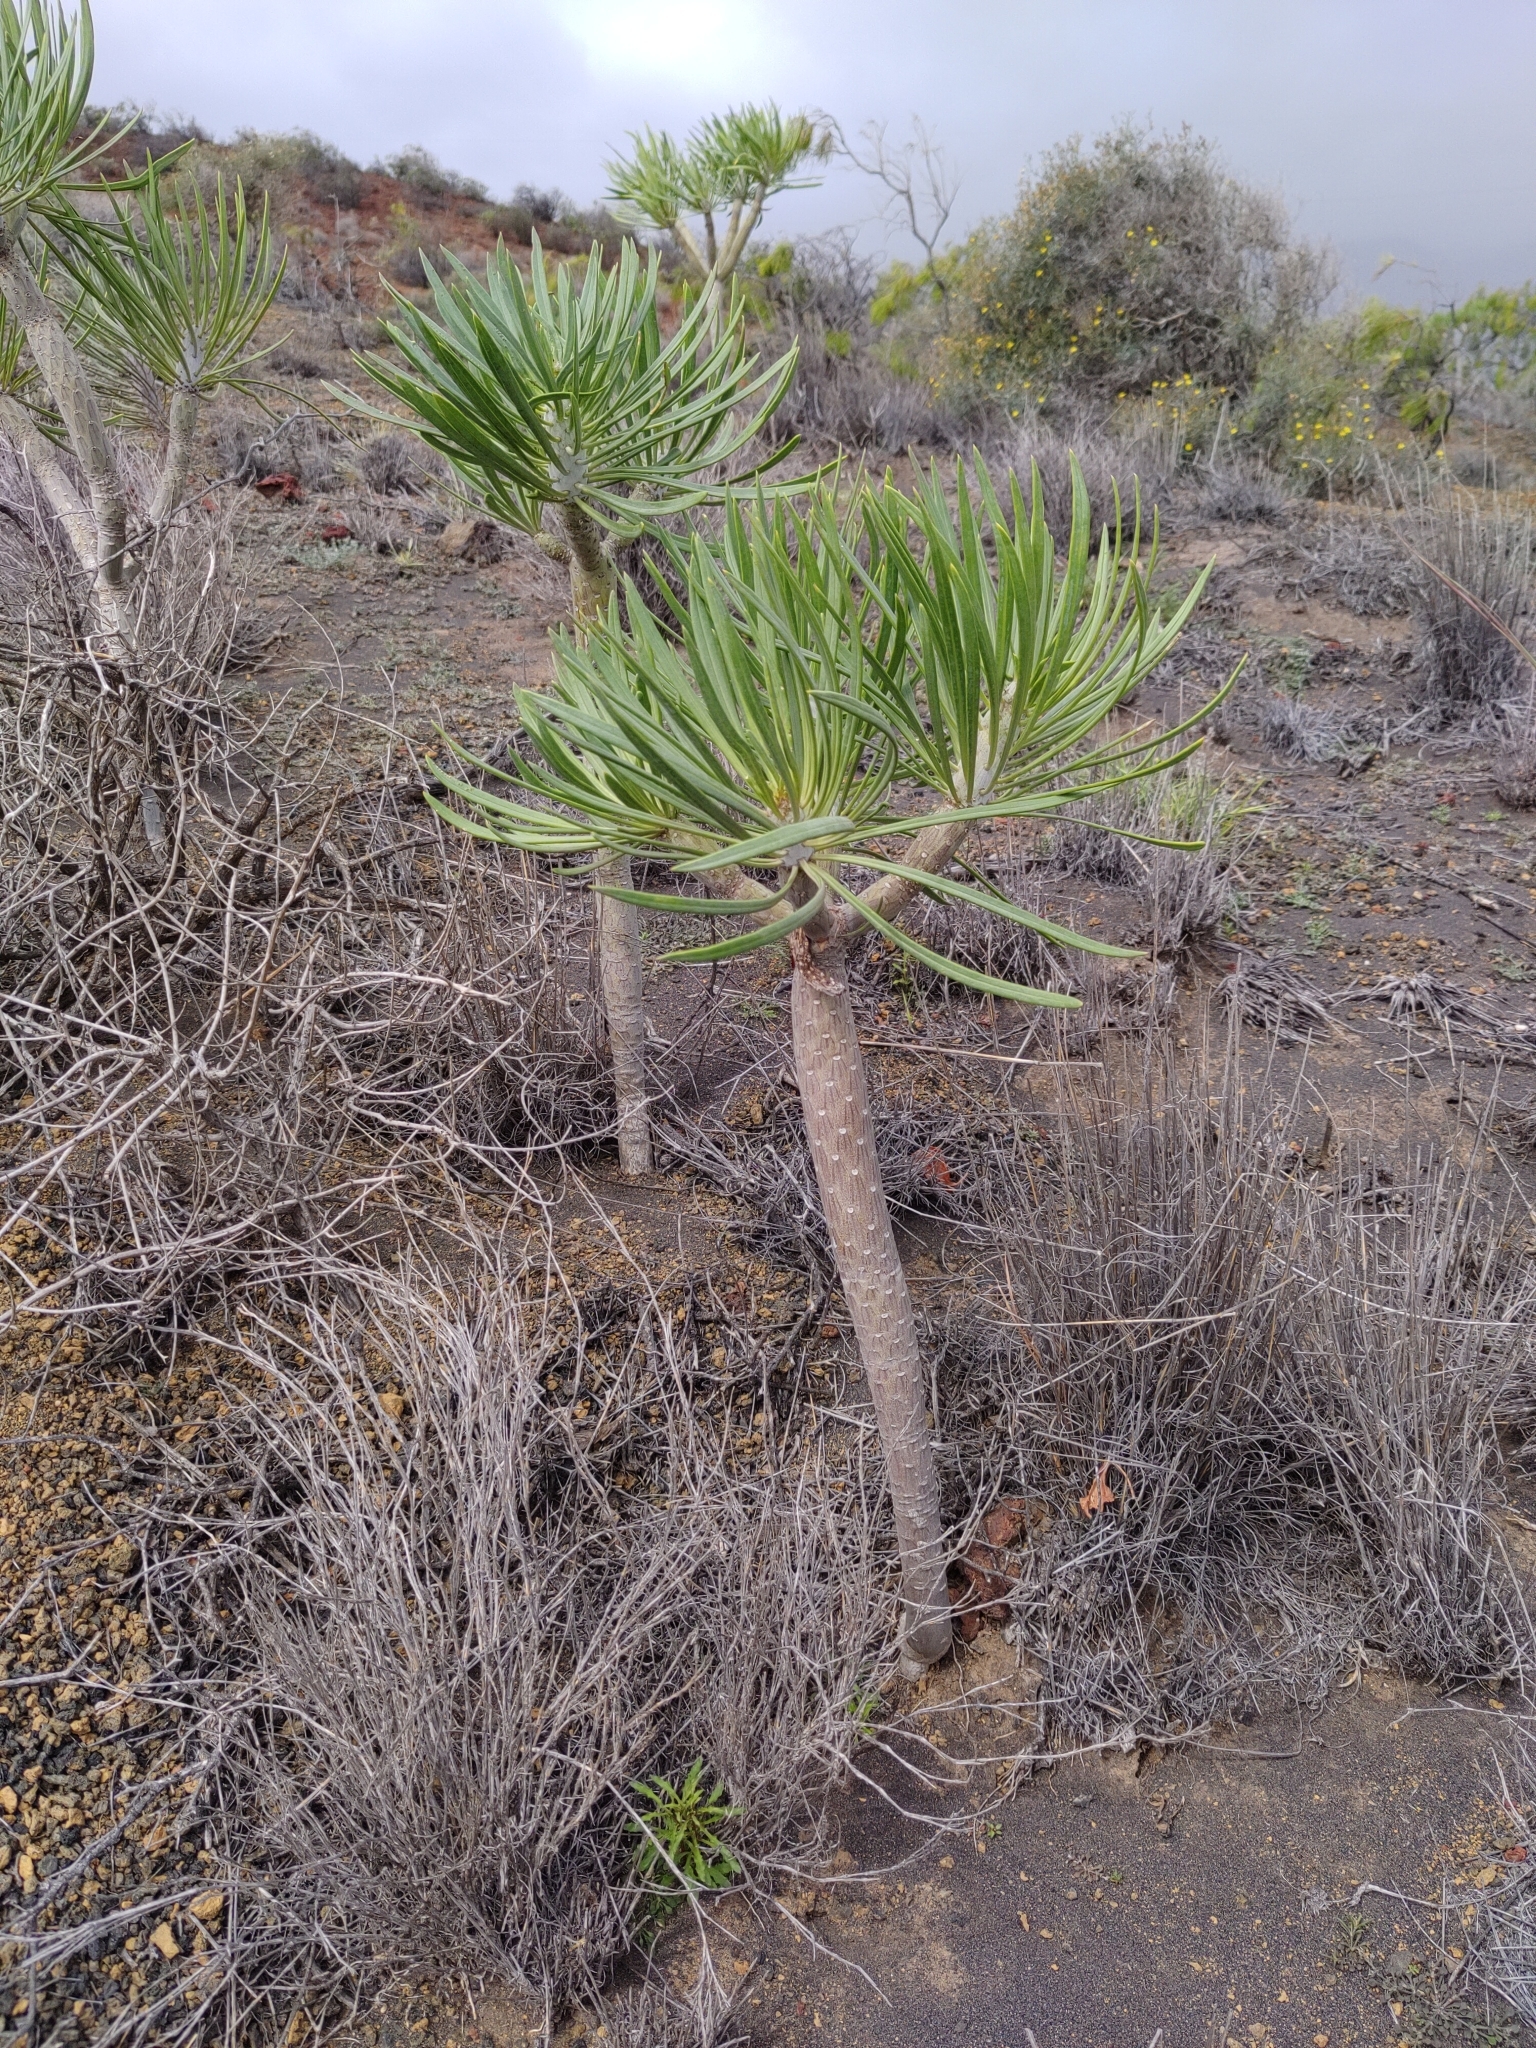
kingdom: Plantae
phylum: Tracheophyta
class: Magnoliopsida
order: Asterales
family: Asteraceae
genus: Kleinia
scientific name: Kleinia neriifolia
